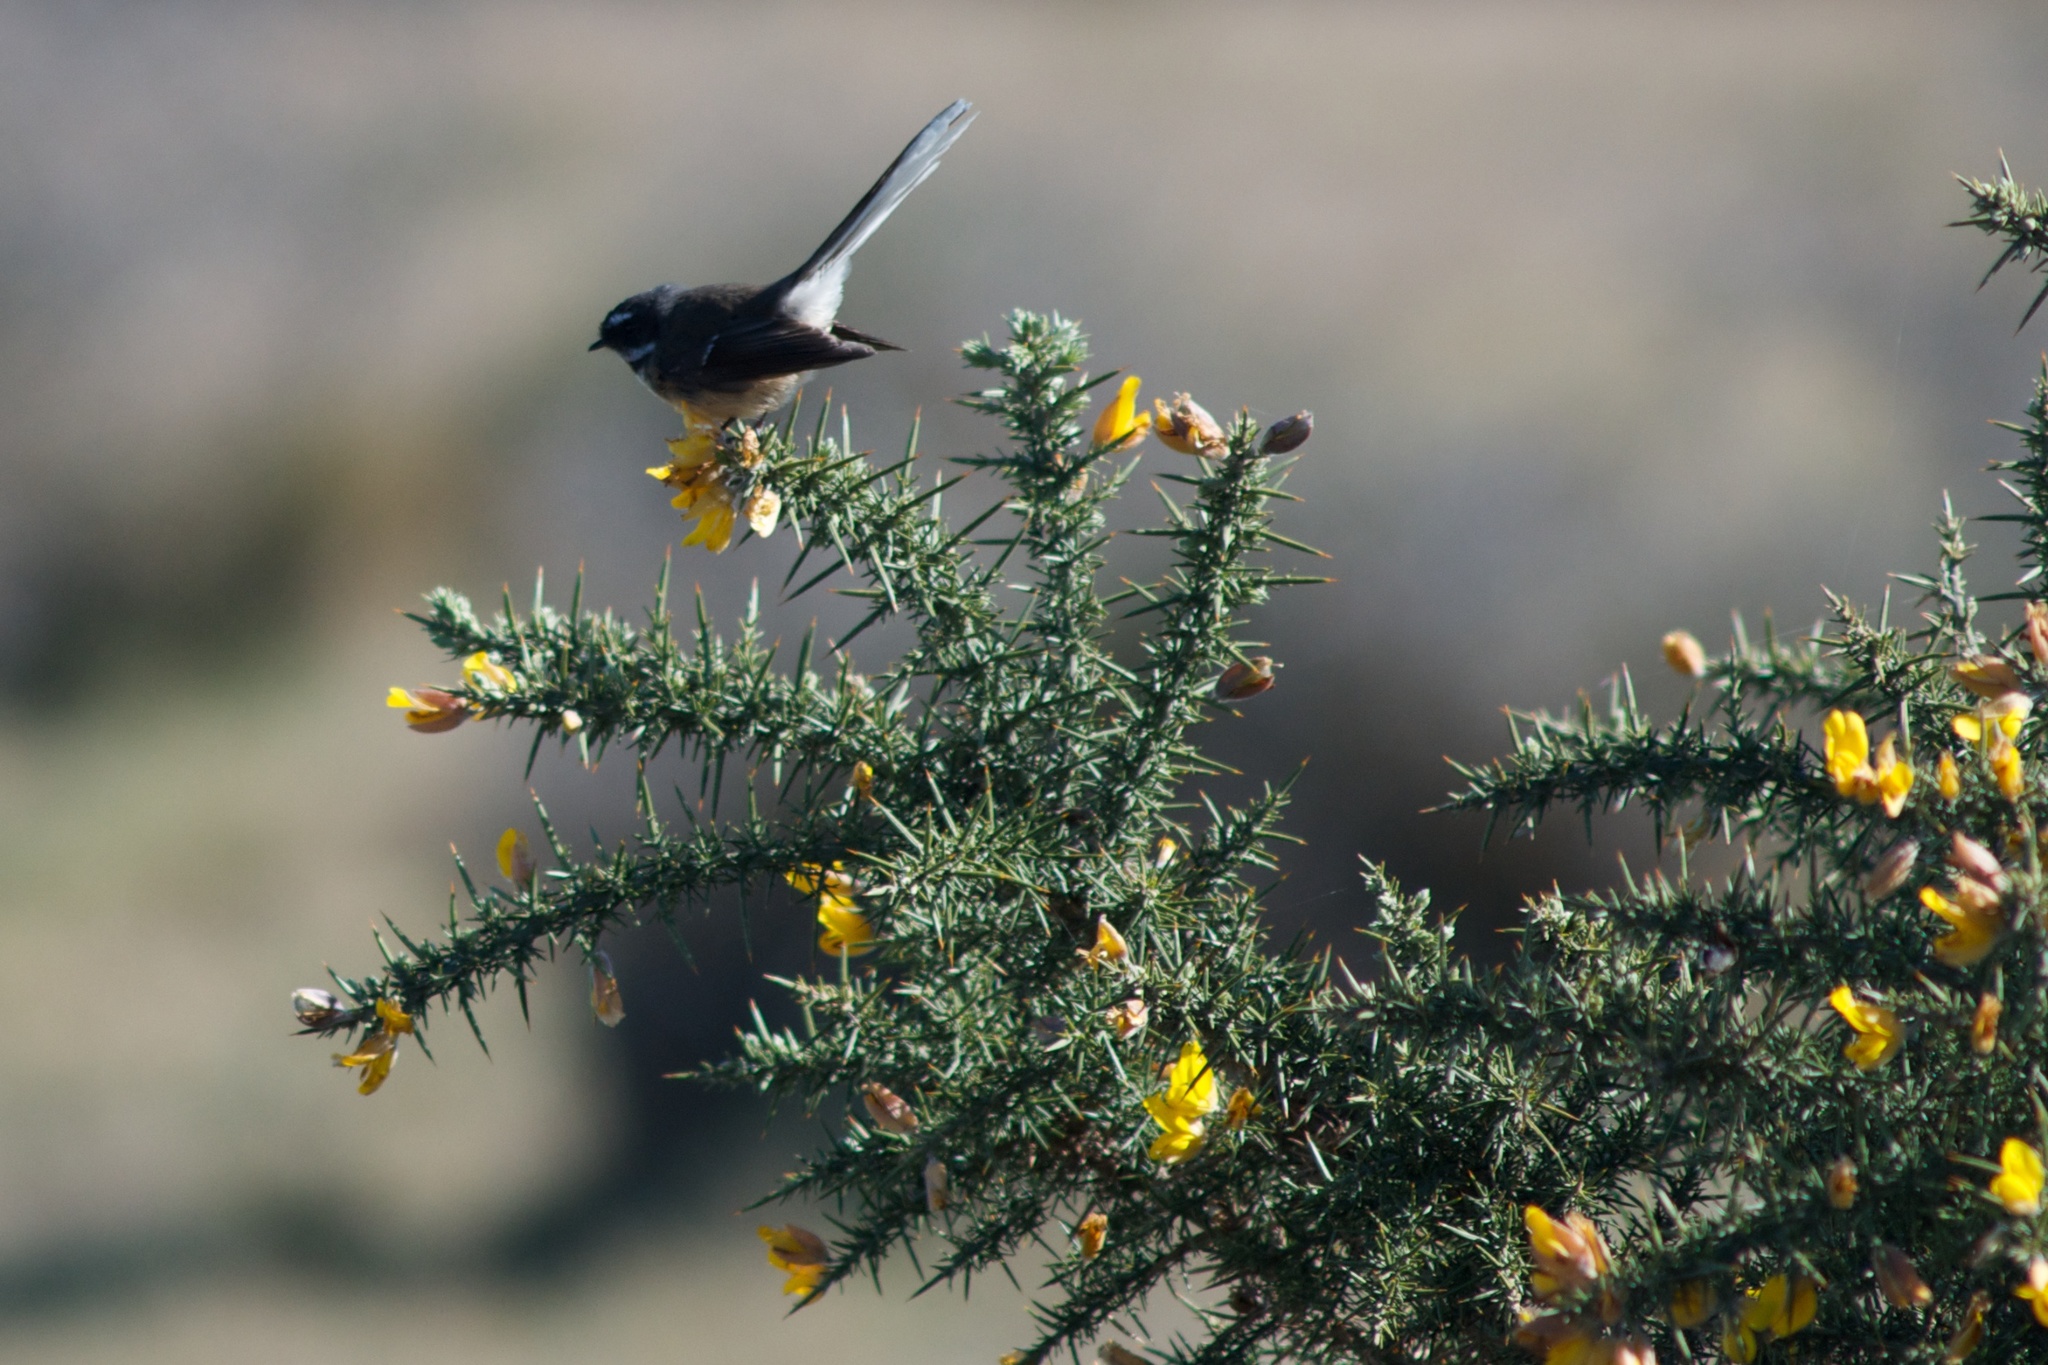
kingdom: Animalia
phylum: Chordata
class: Aves
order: Passeriformes
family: Rhipiduridae
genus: Rhipidura
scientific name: Rhipidura fuliginosa
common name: New zealand fantail
